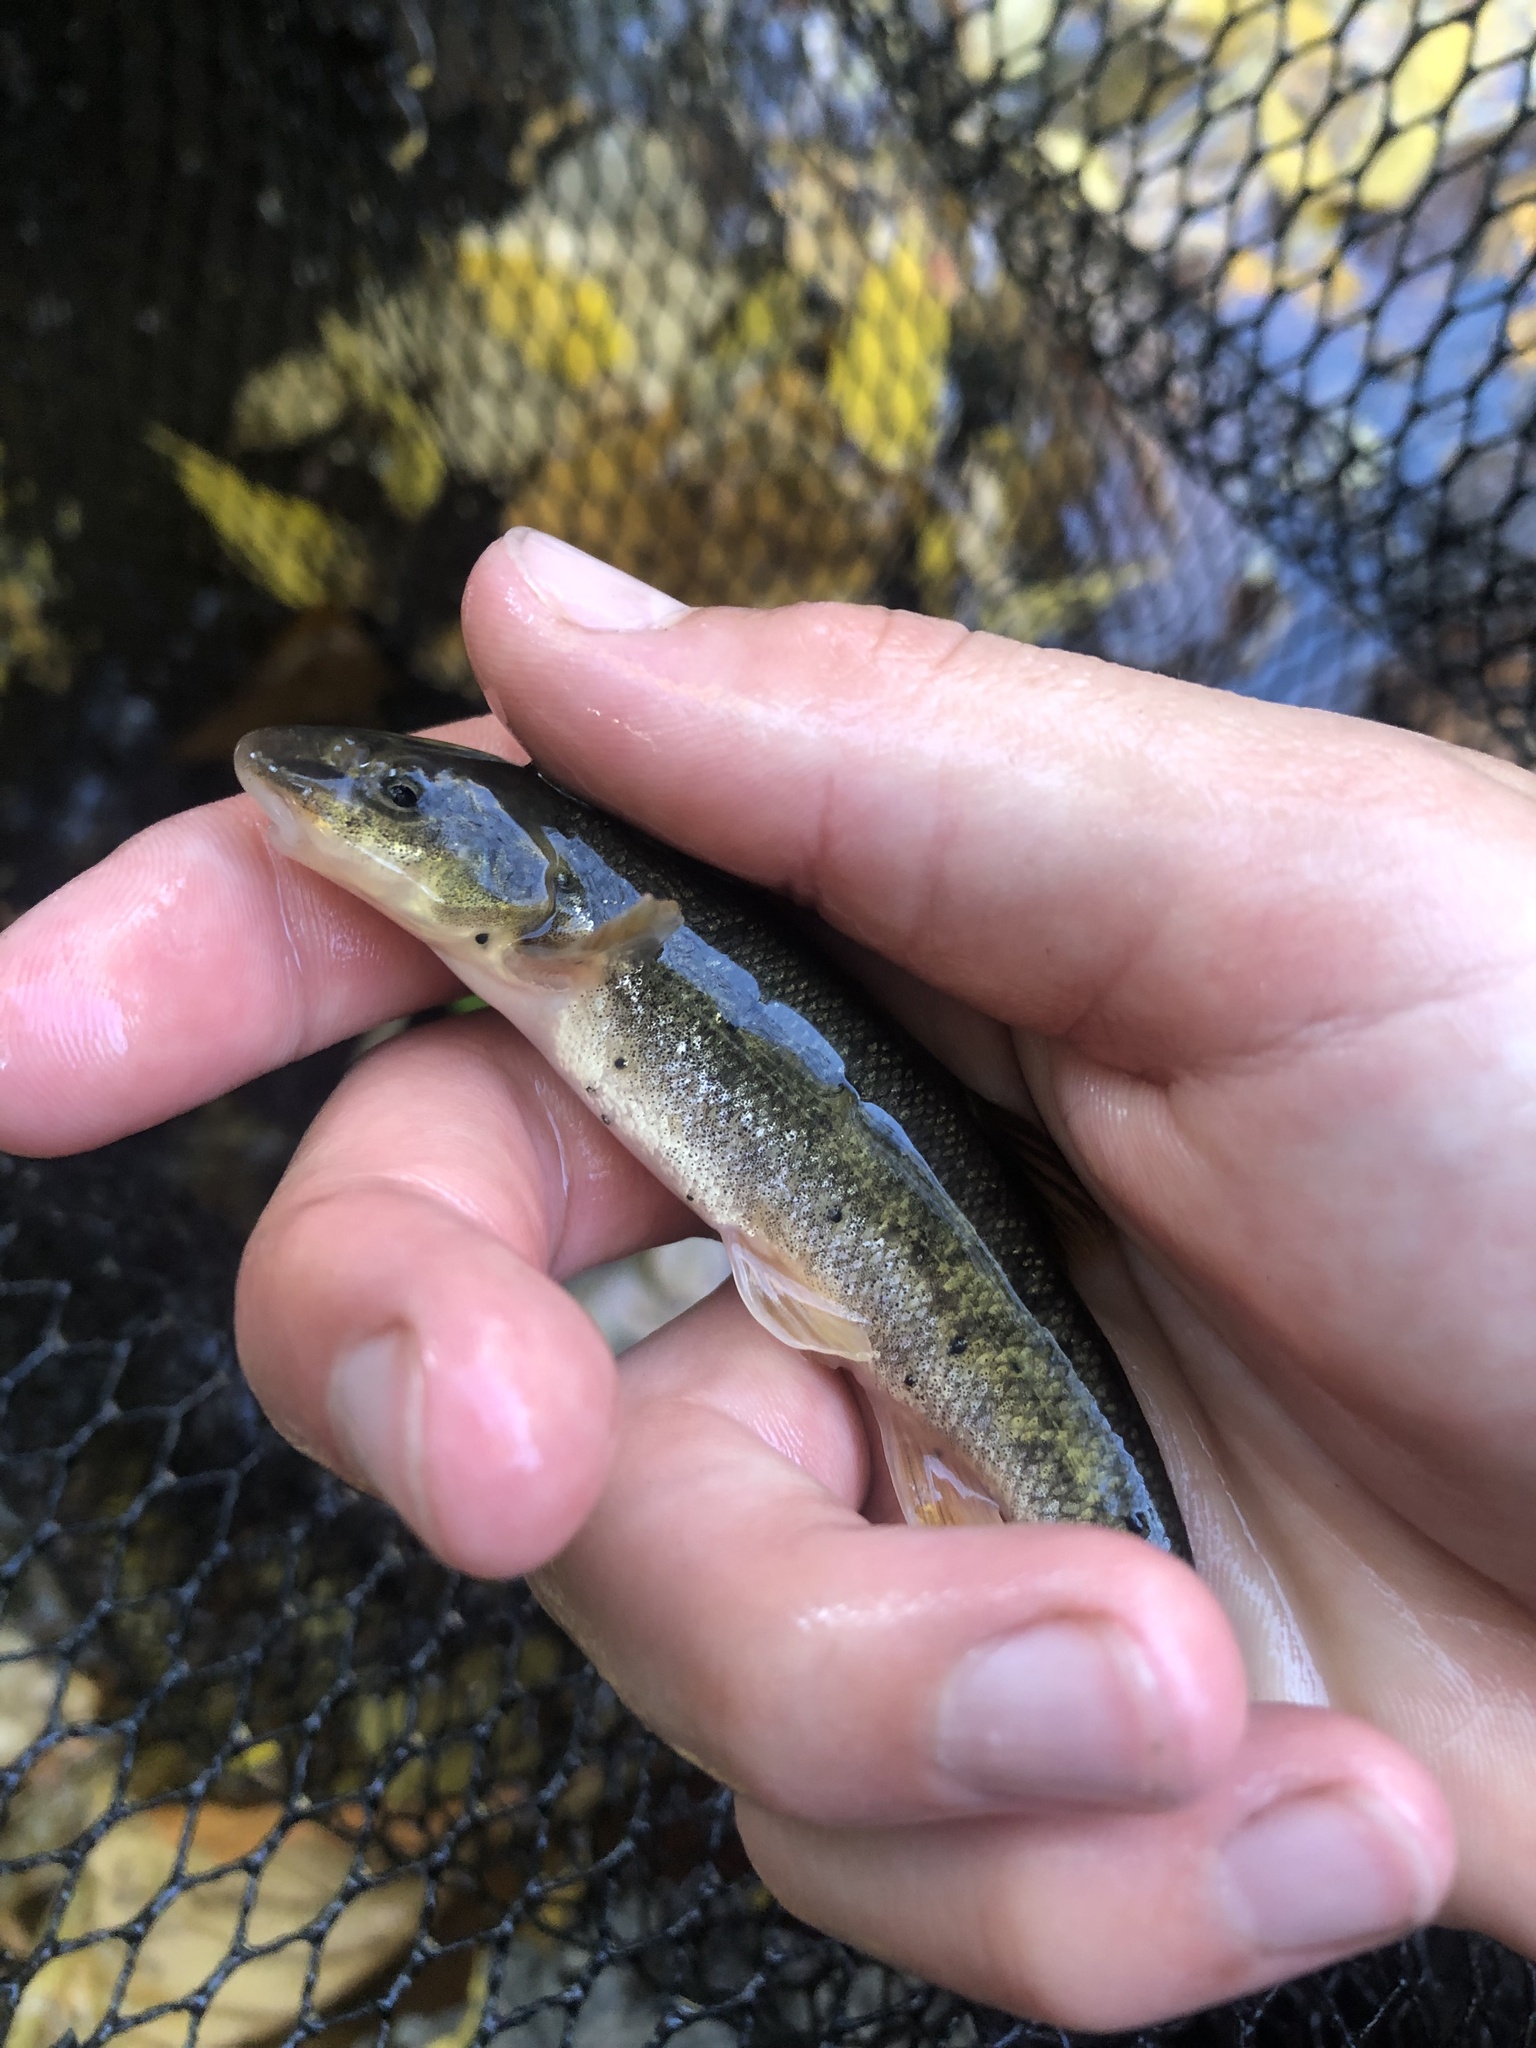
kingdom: Animalia
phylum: Chordata
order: Cypriniformes
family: Cyprinidae
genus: Rhinichthys
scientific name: Rhinichthys cataractae
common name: Longnose dace
